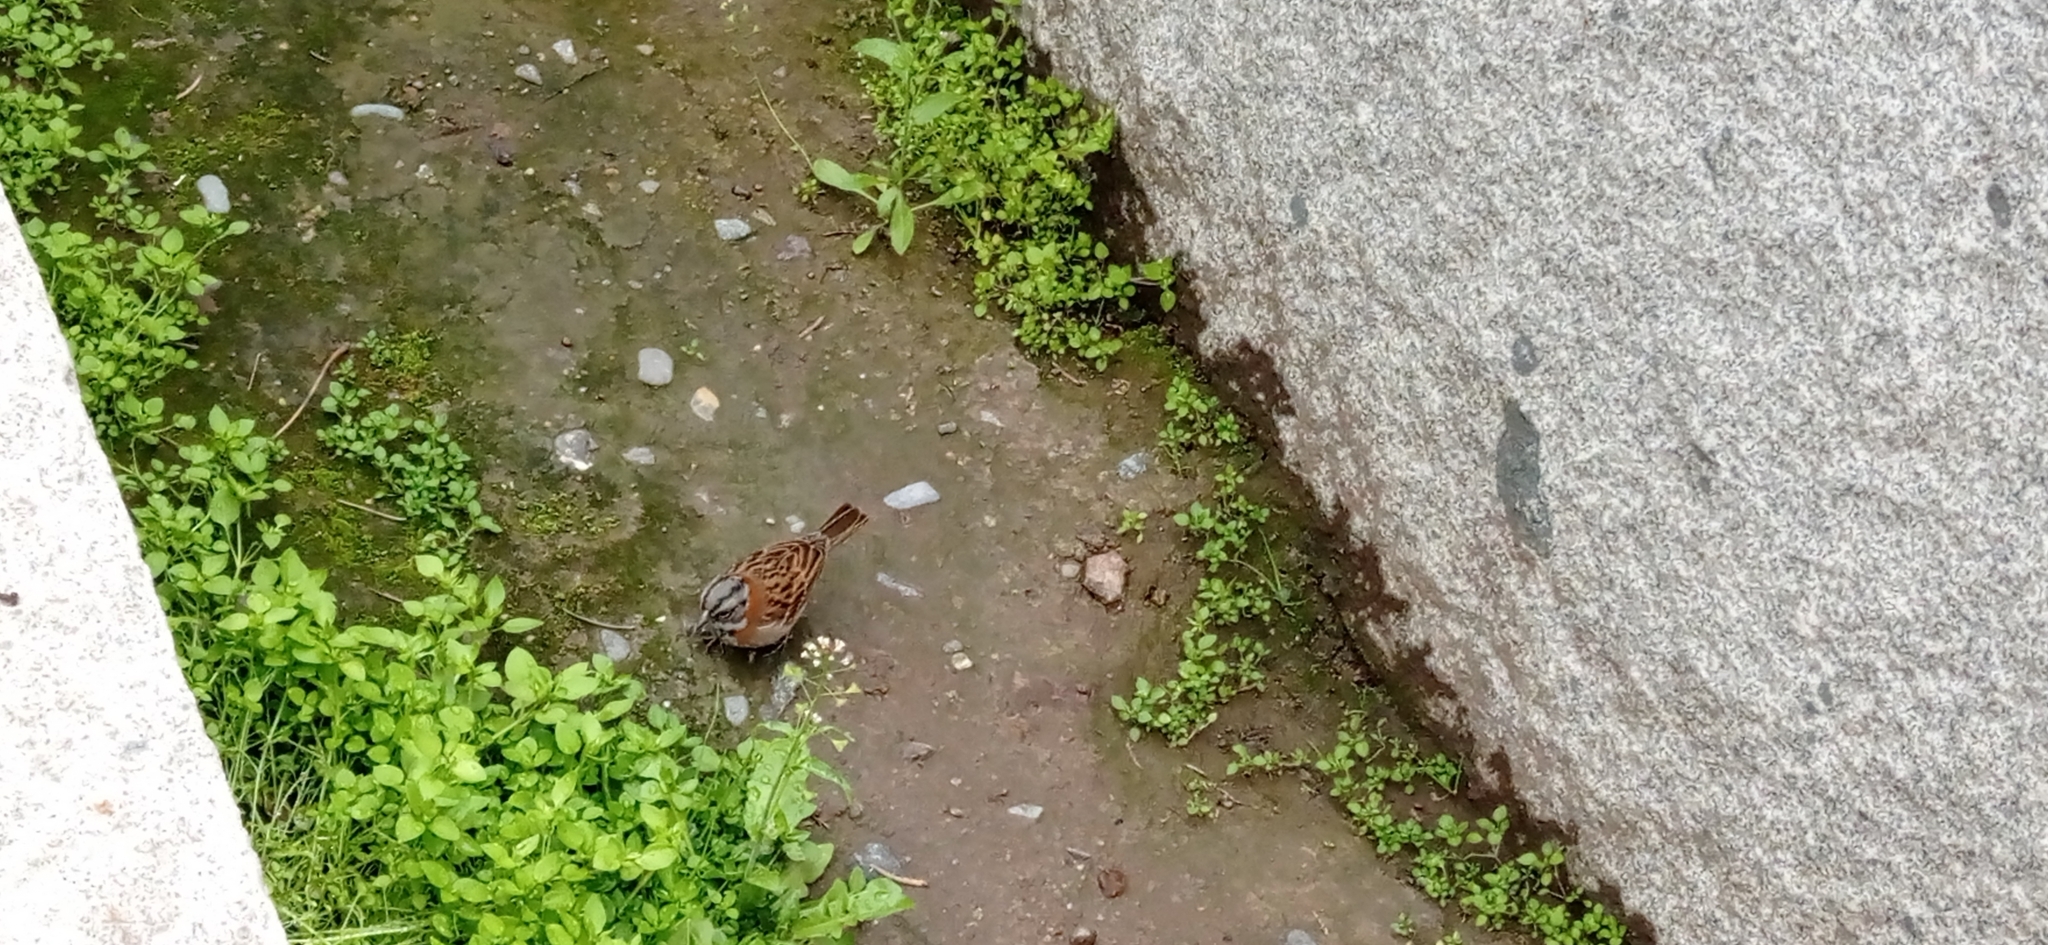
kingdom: Animalia
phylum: Chordata
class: Aves
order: Passeriformes
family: Passerellidae
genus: Zonotrichia
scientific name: Zonotrichia capensis
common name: Rufous-collared sparrow
